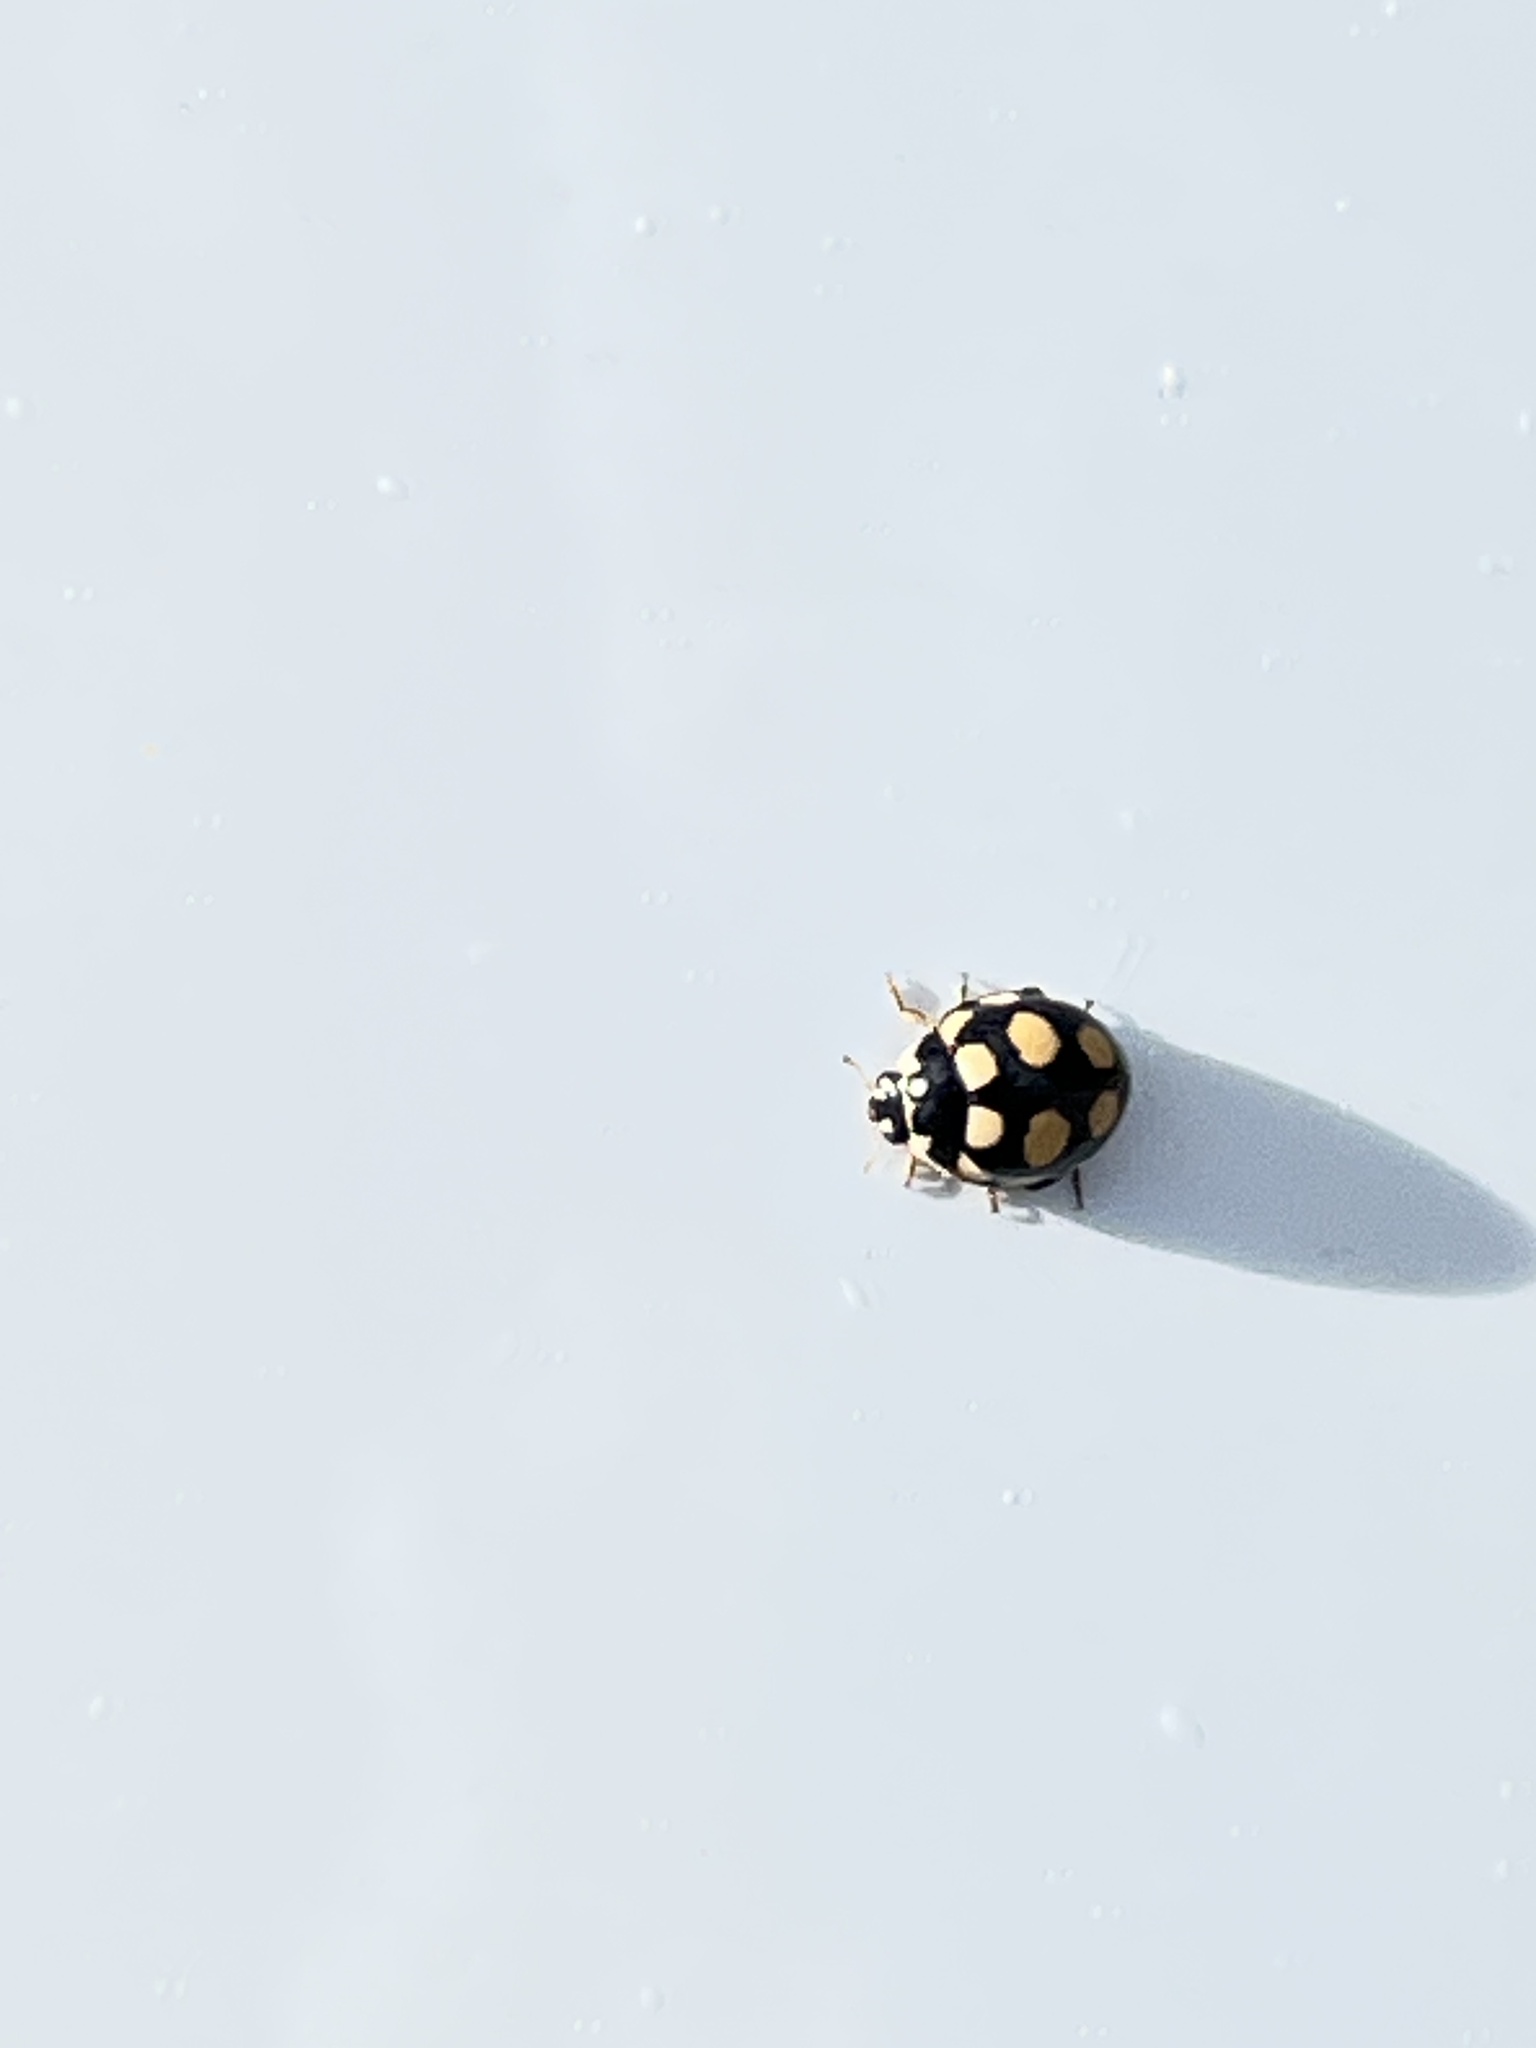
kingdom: Animalia
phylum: Arthropoda
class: Insecta
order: Coleoptera
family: Coccinellidae
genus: Coccinula
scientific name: Coccinula quatuordecimpustulata
